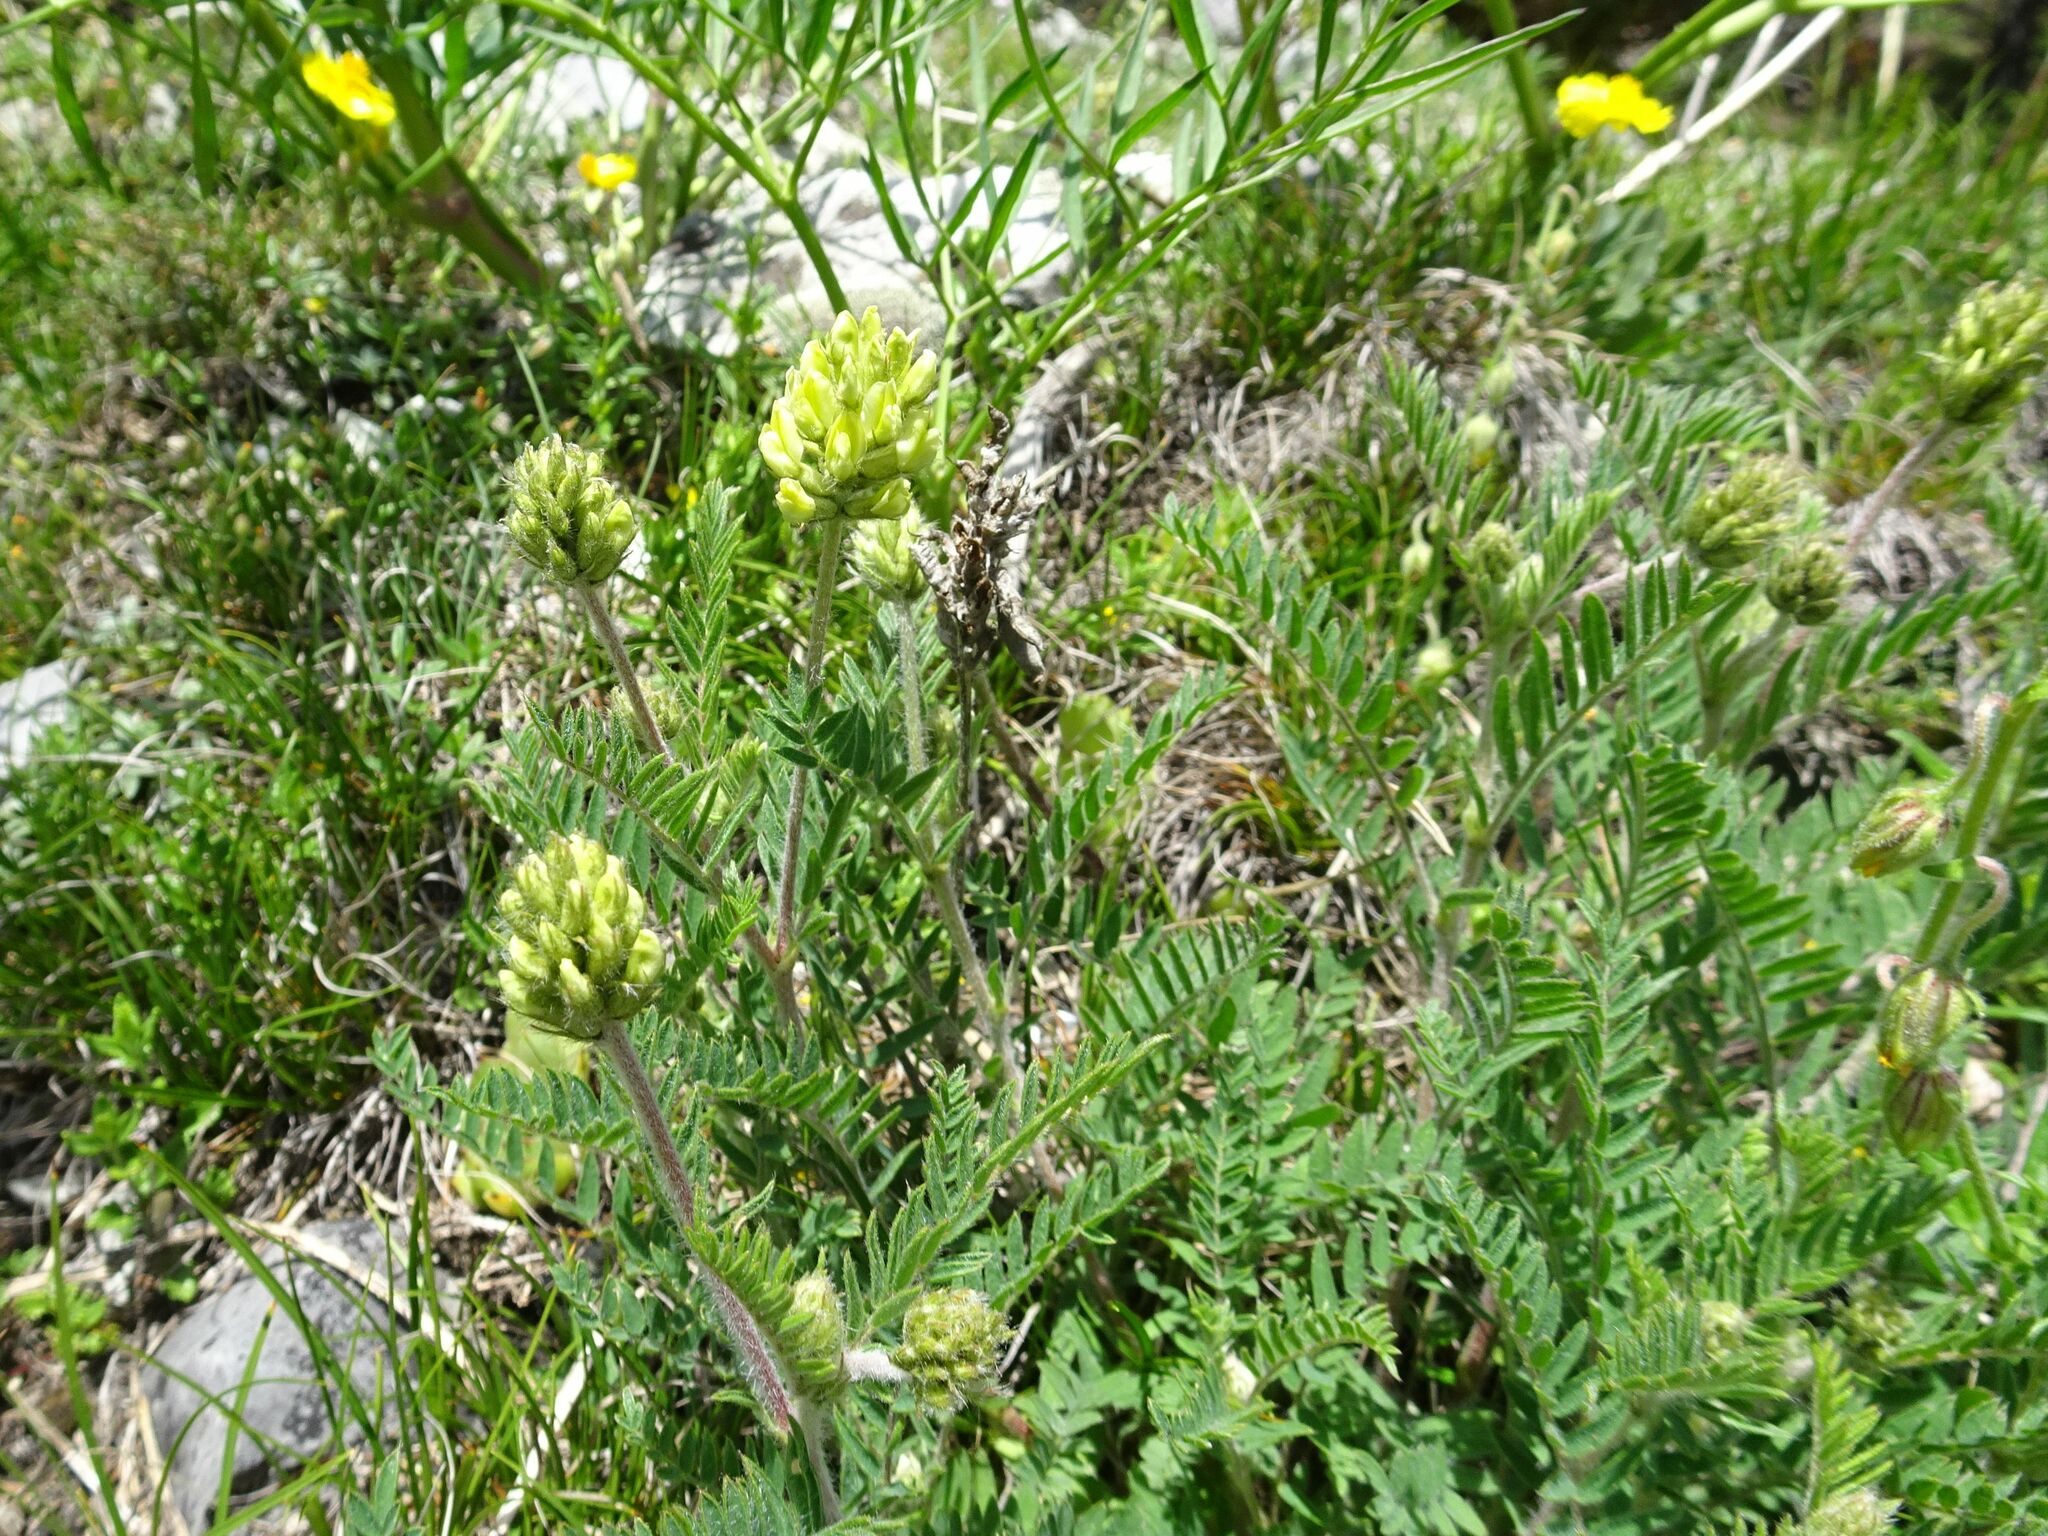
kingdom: Plantae
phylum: Tracheophyta
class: Magnoliopsida
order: Fabales
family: Fabaceae
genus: Oxytropis
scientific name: Oxytropis pilosa
